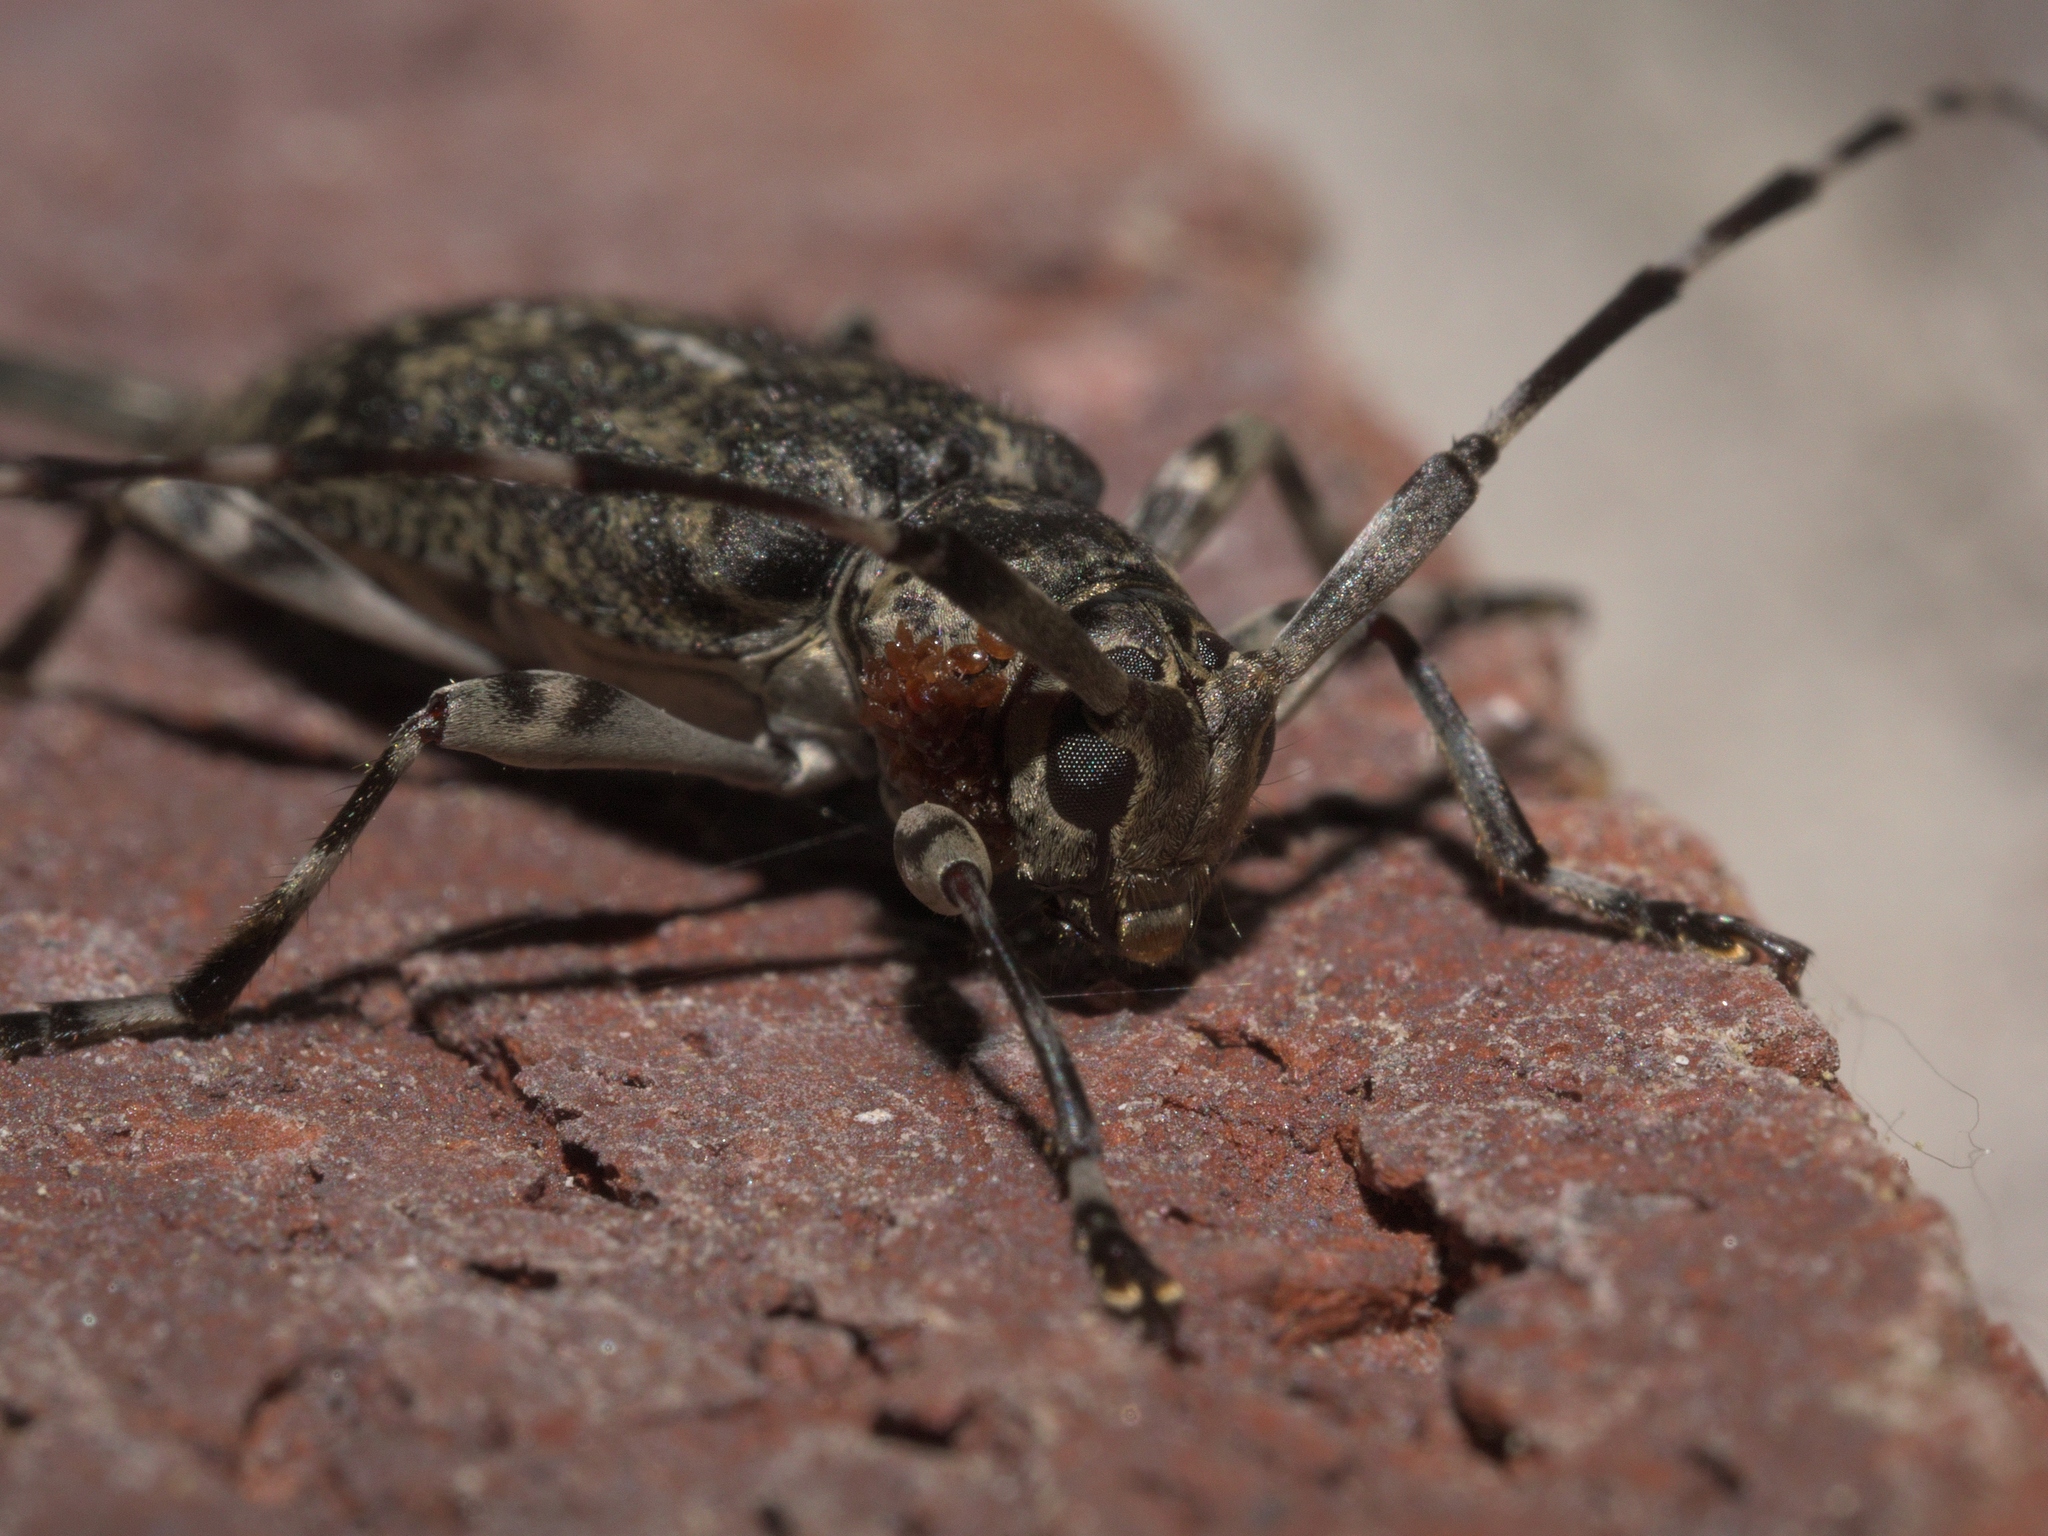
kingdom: Animalia
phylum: Arthropoda
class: Insecta
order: Coleoptera
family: Cerambycidae
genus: Graphisurus
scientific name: Graphisurus fasciatus
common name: Banded graphisurus
